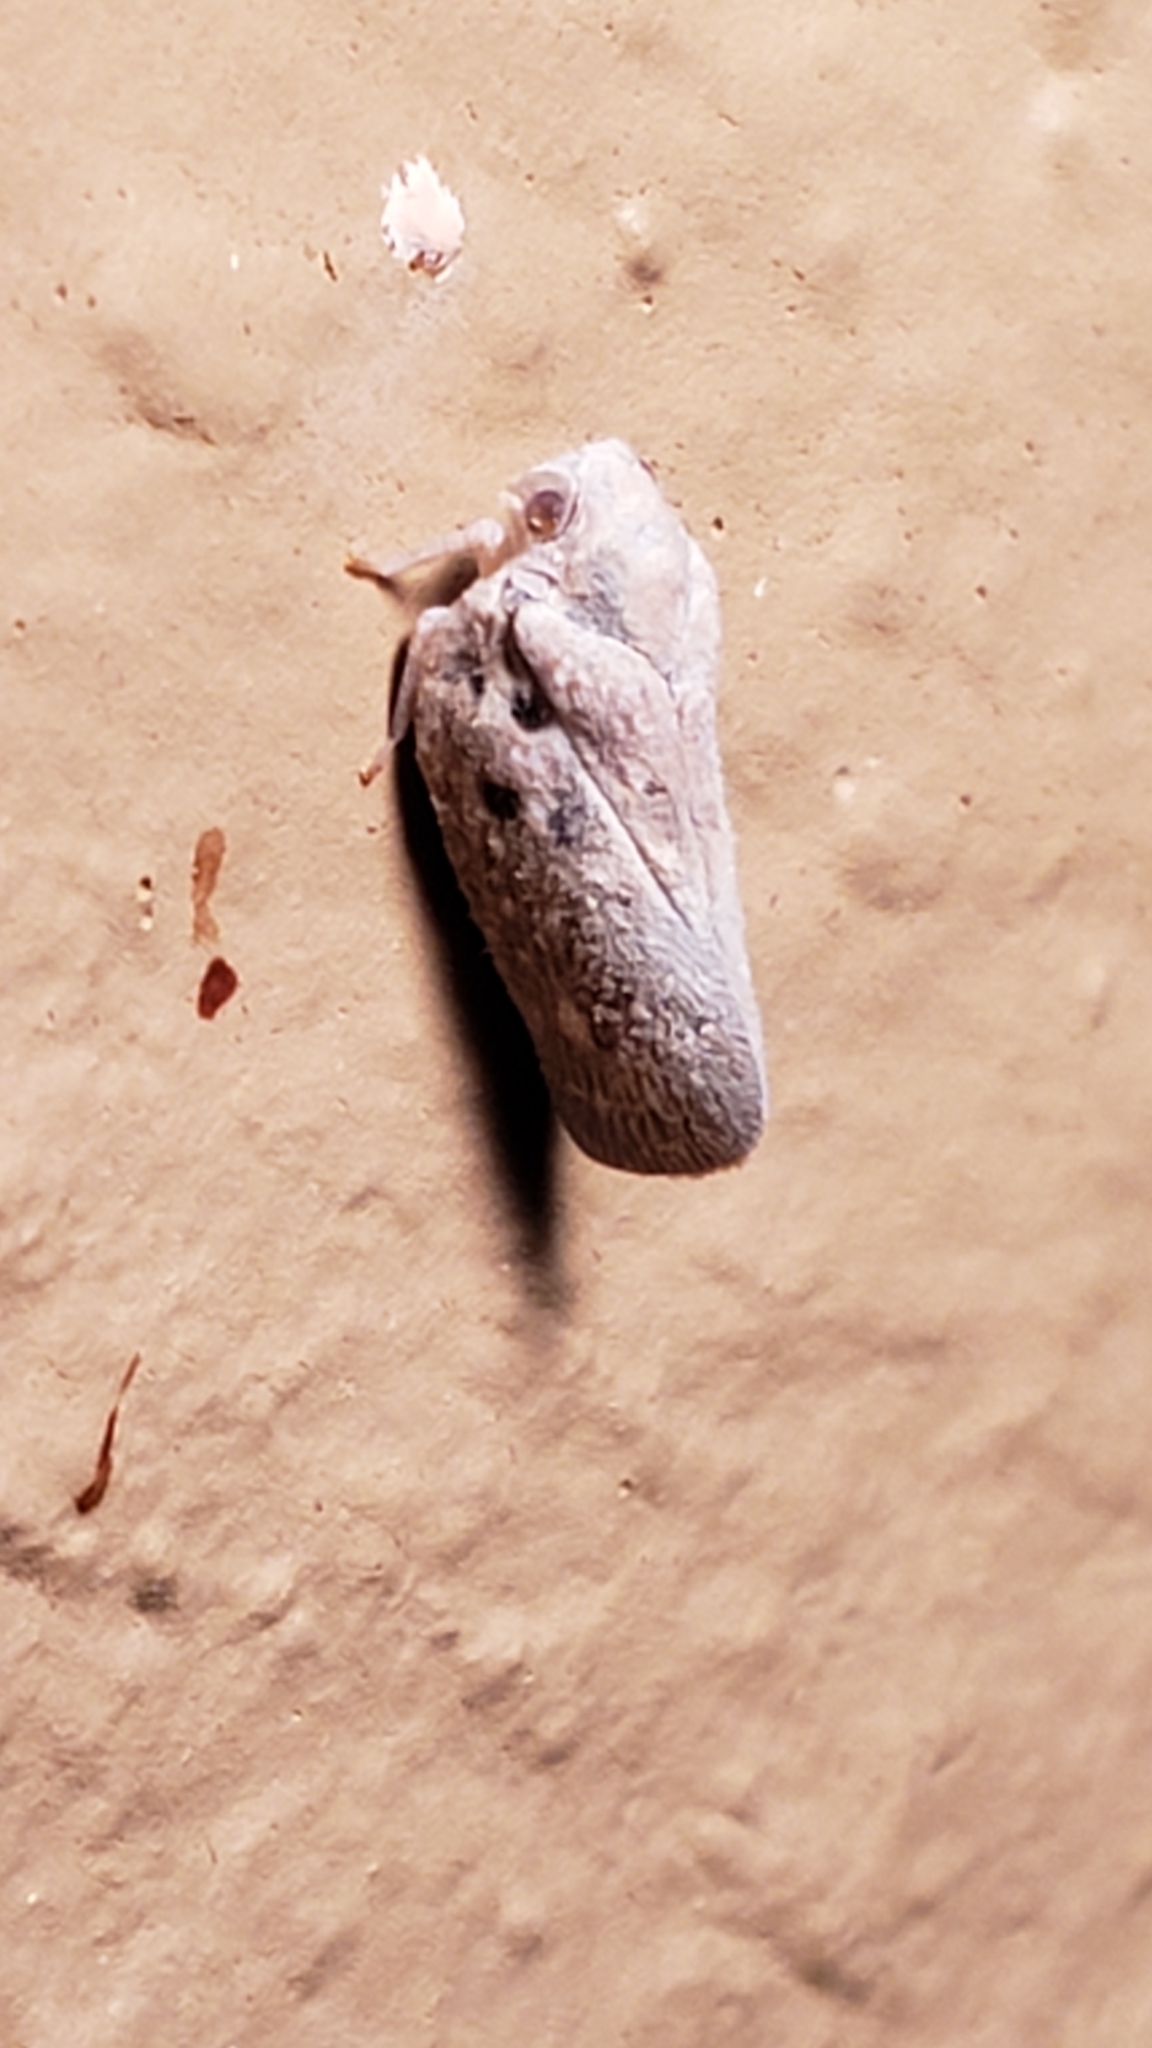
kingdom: Animalia
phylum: Arthropoda
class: Insecta
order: Hemiptera
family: Flatidae
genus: Metcalfa
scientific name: Metcalfa pruinosa
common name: Citrus flatid planthopper
